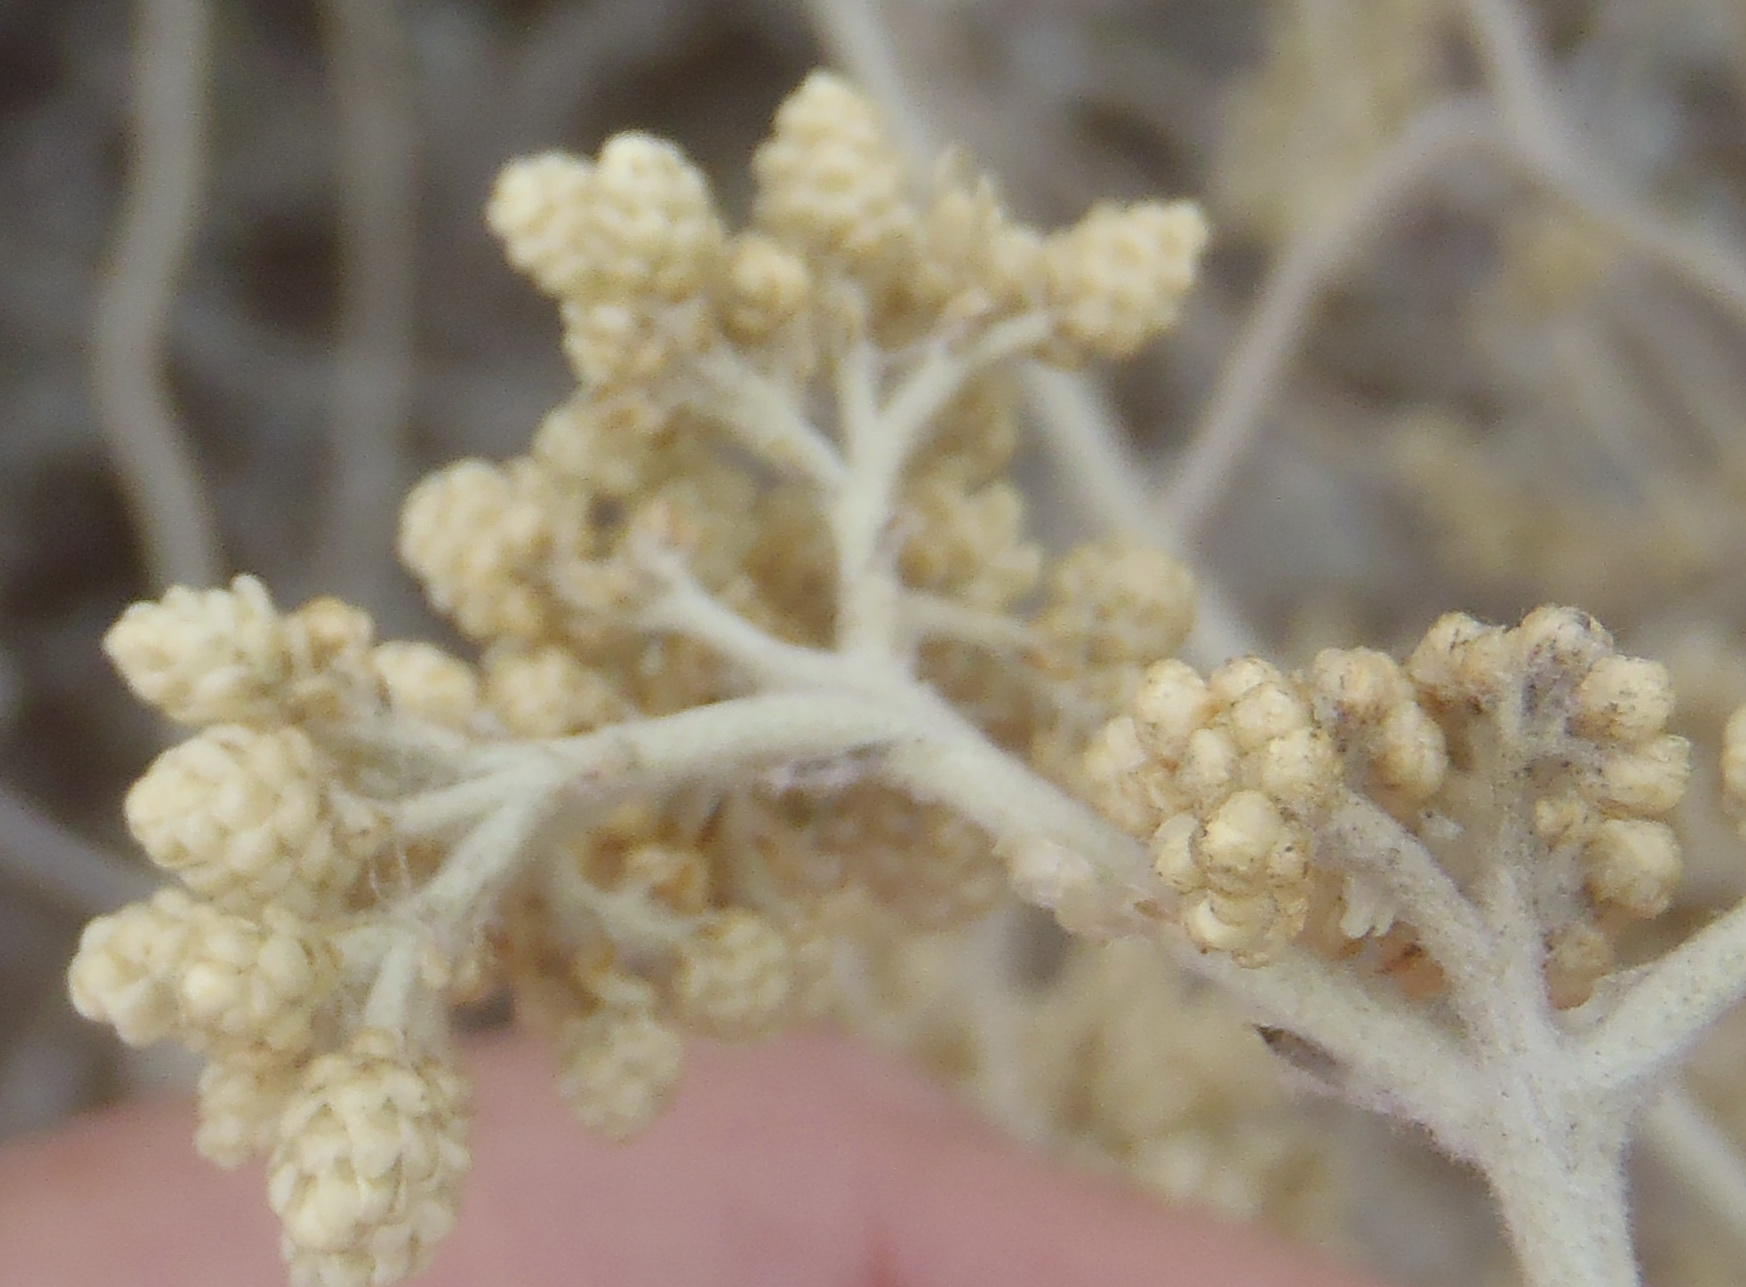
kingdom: Plantae
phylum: Tracheophyta
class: Magnoliopsida
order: Asterales
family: Asteraceae
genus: Helichrysum
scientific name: Helichrysum petiolare
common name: Licorice-plant
